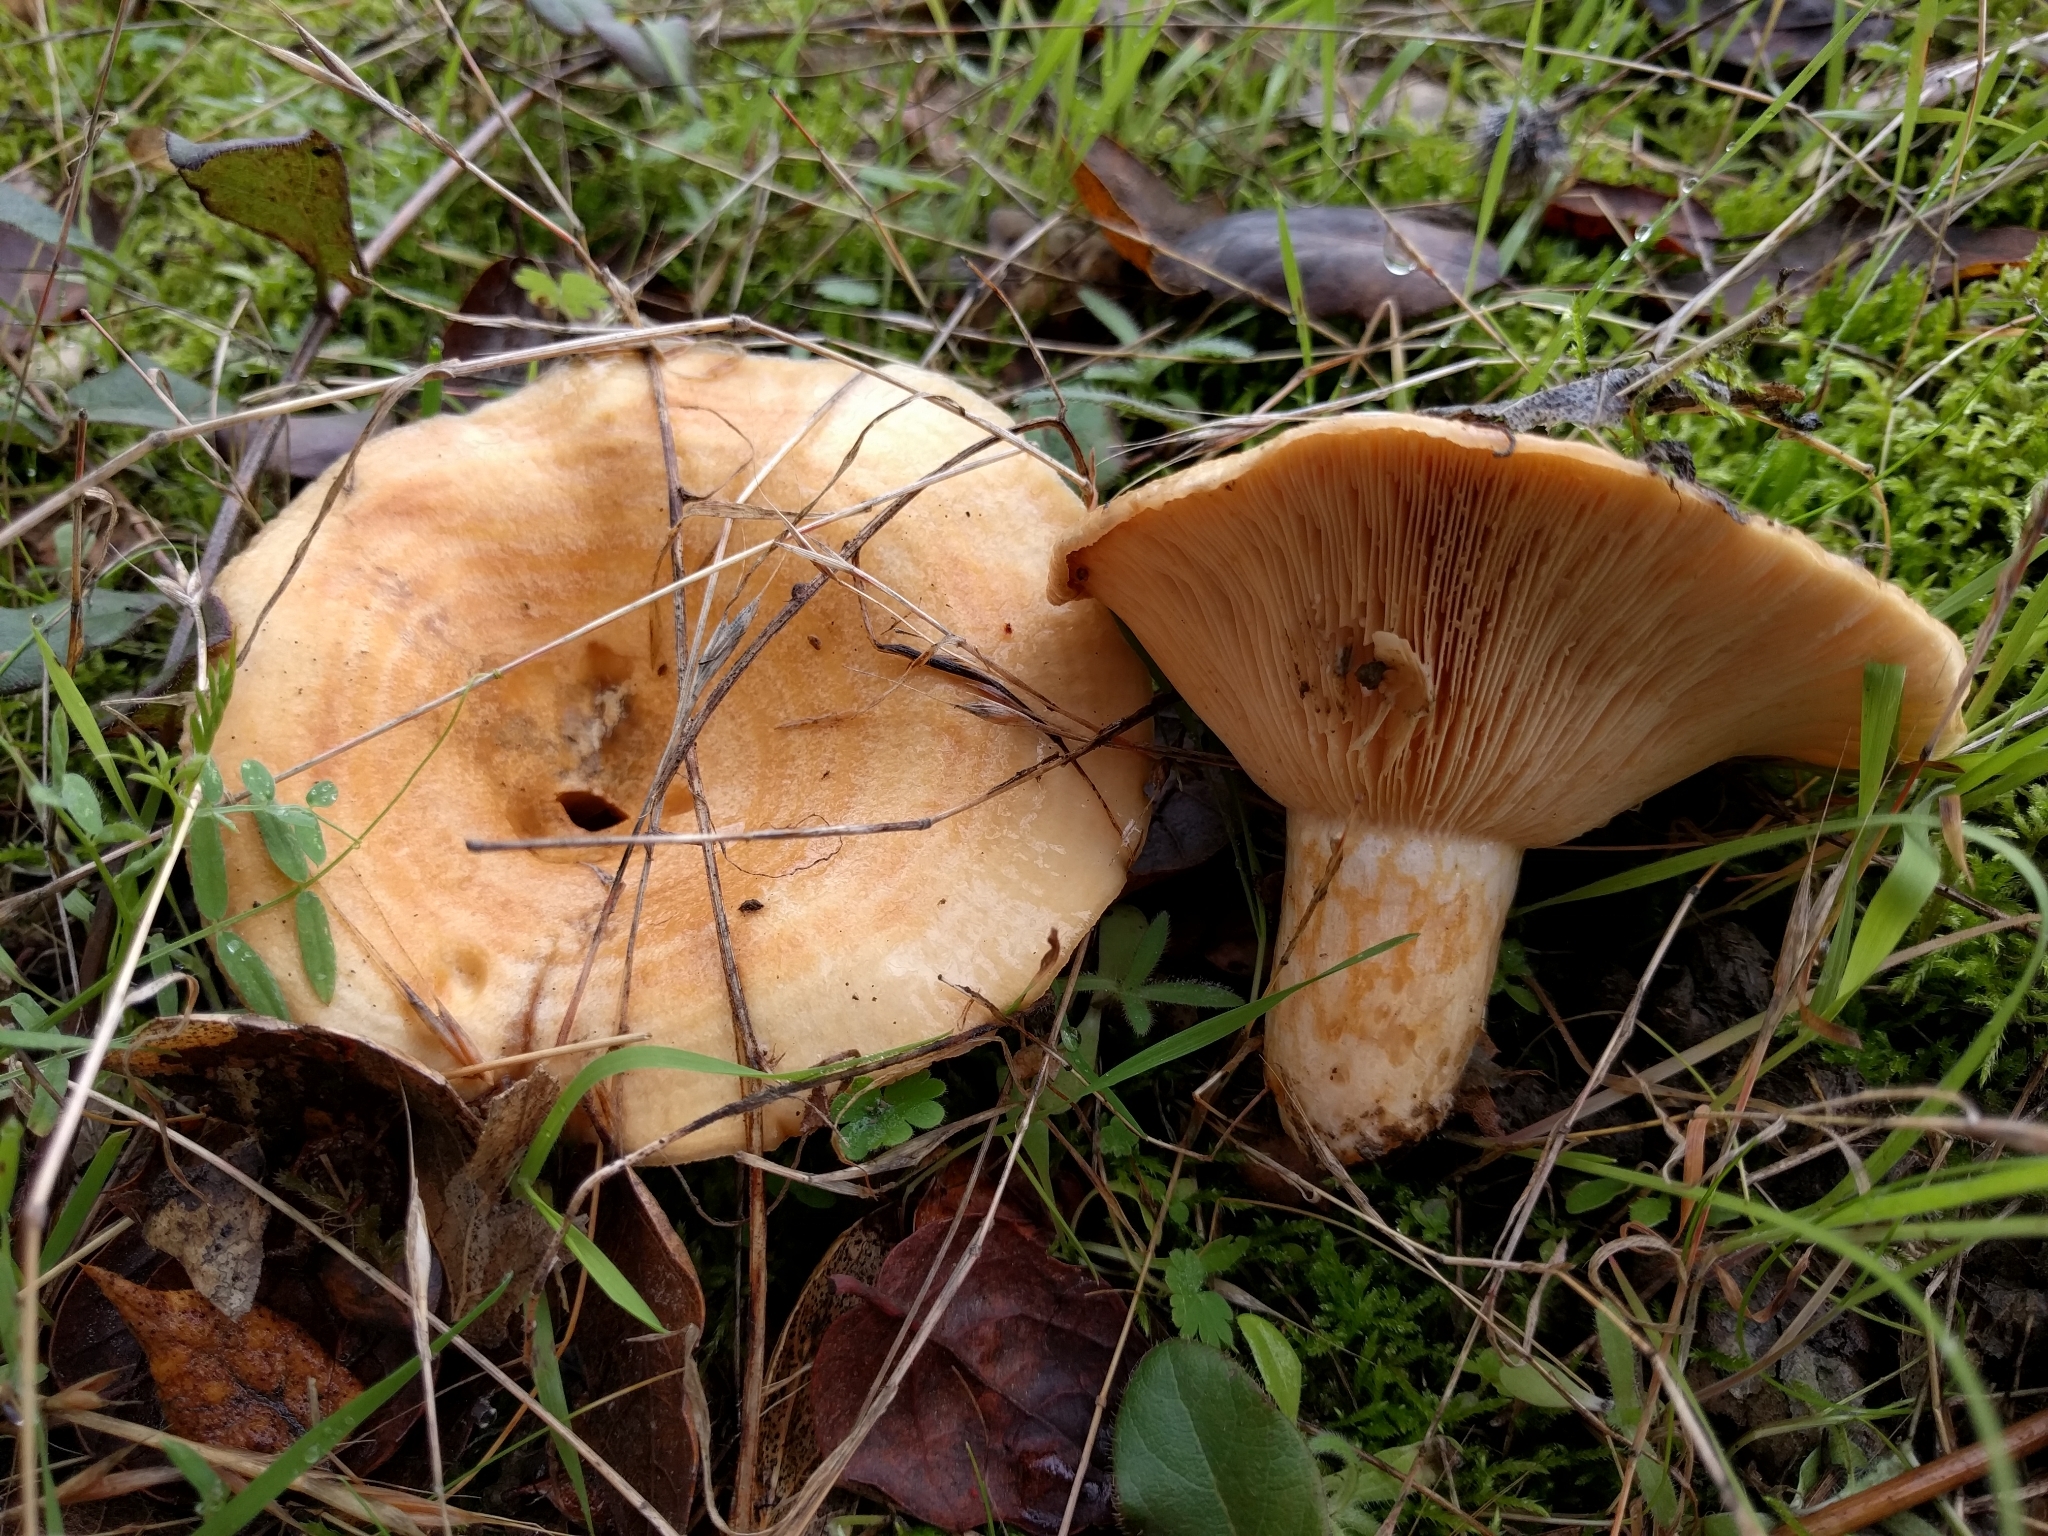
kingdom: Fungi
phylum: Basidiomycota
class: Agaricomycetes
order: Russulales
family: Russulaceae
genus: Lactarius
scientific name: Lactarius alnicola
